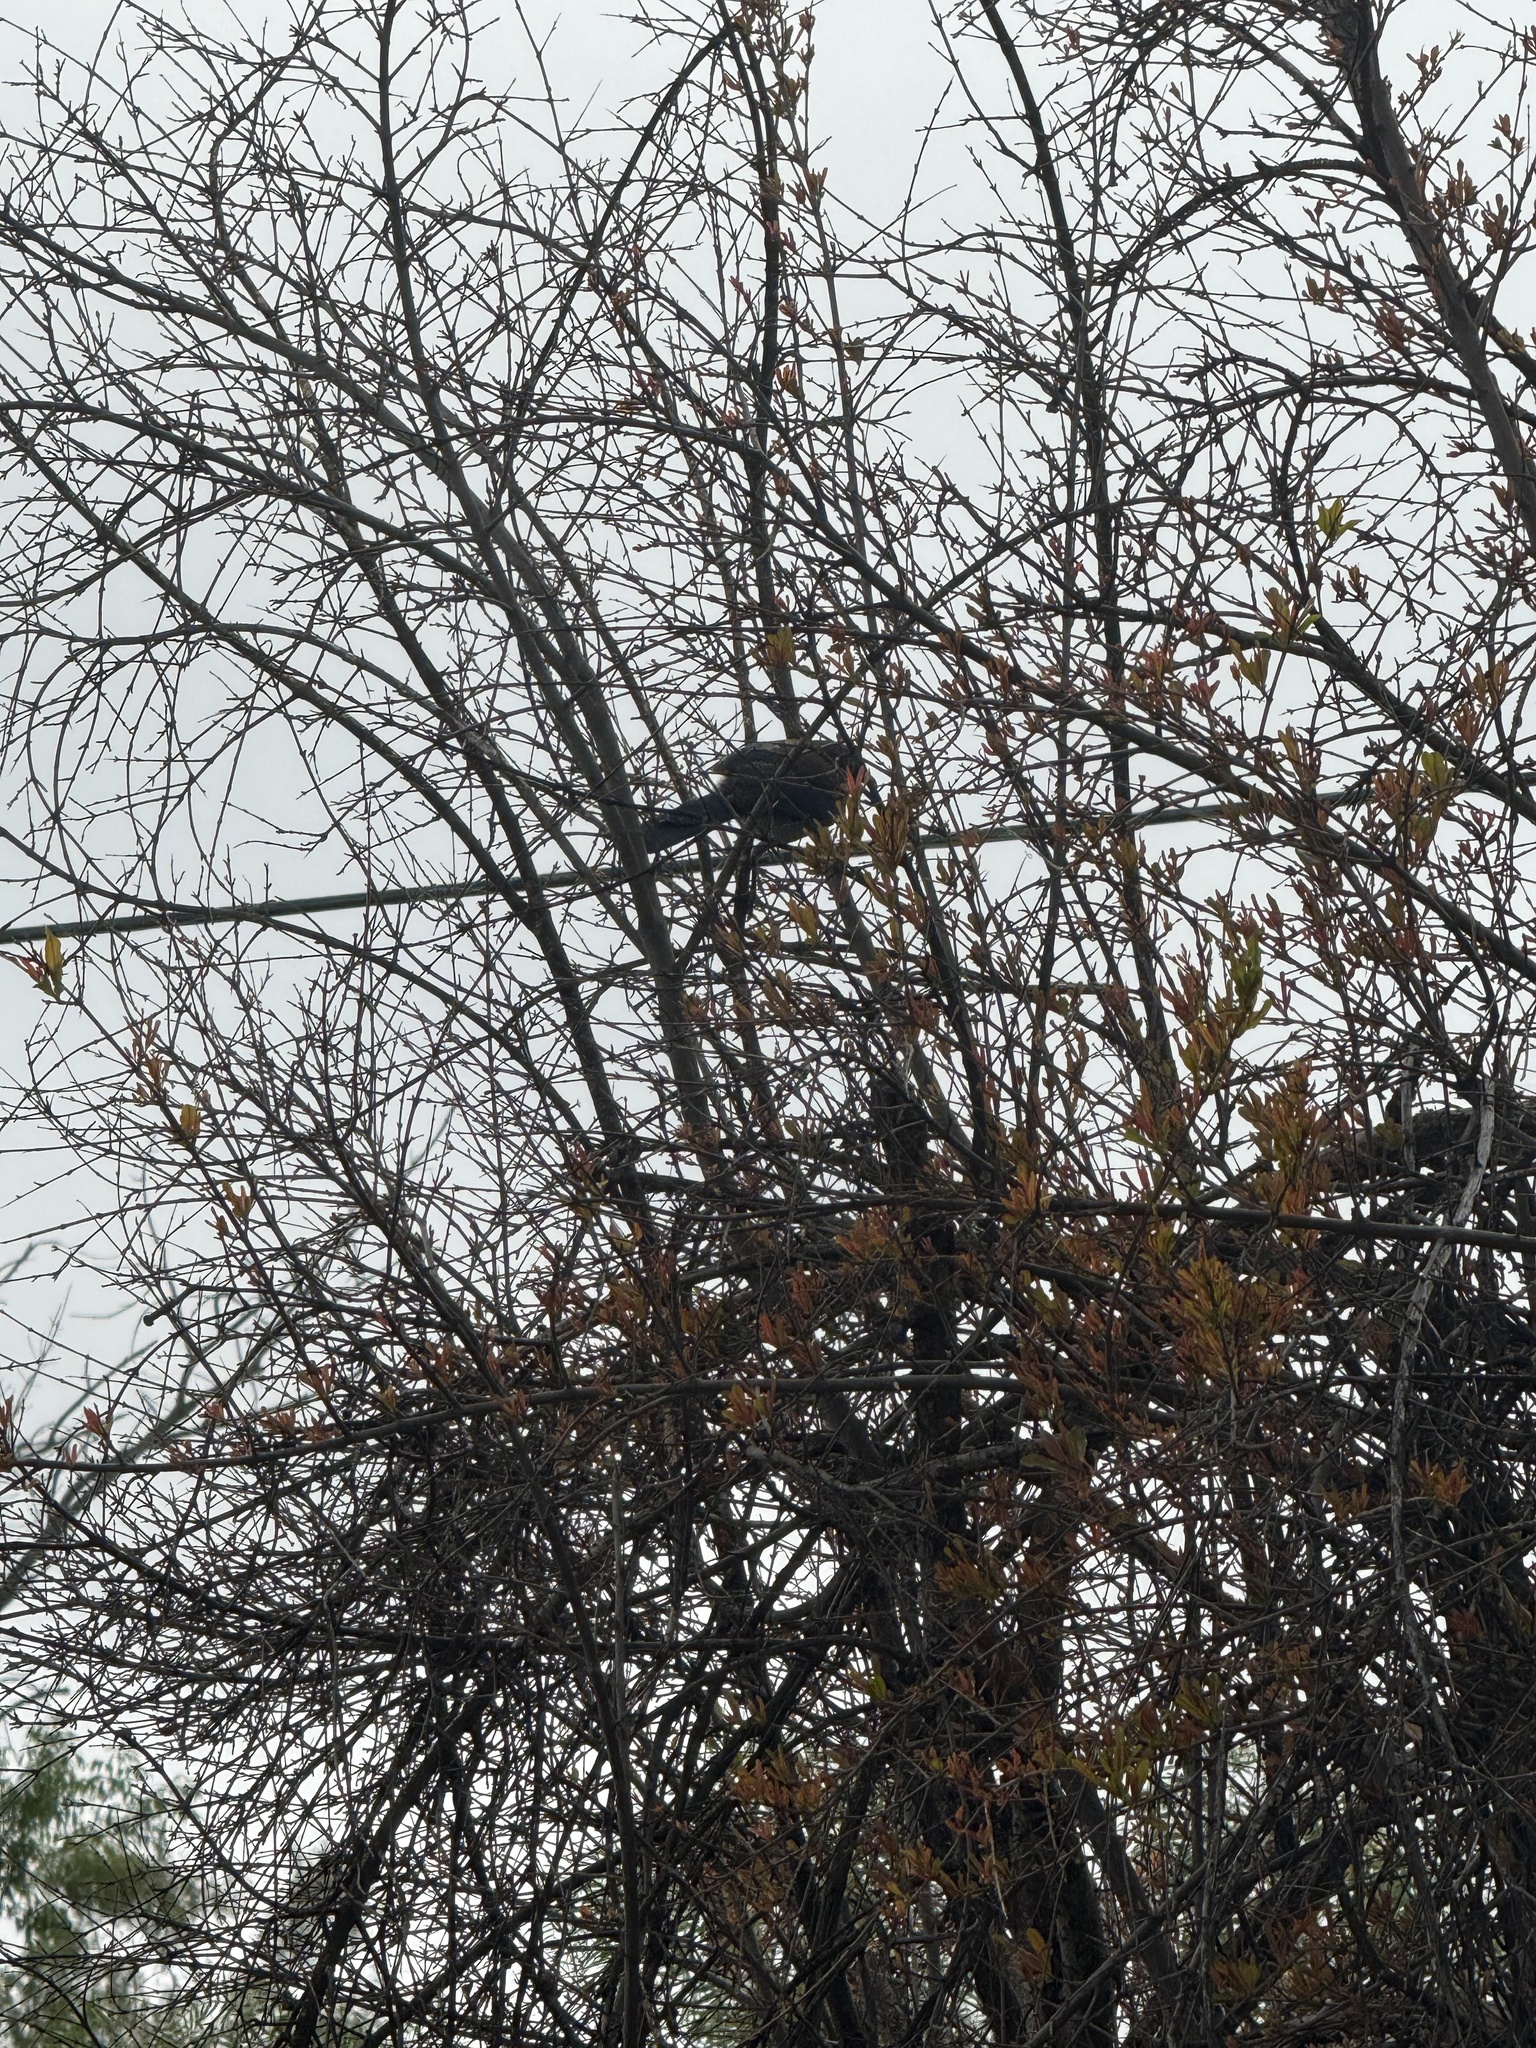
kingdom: Animalia
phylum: Chordata
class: Aves
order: Passeriformes
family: Corvidae
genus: Aphelocoma
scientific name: Aphelocoma californica
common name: California scrub-jay
